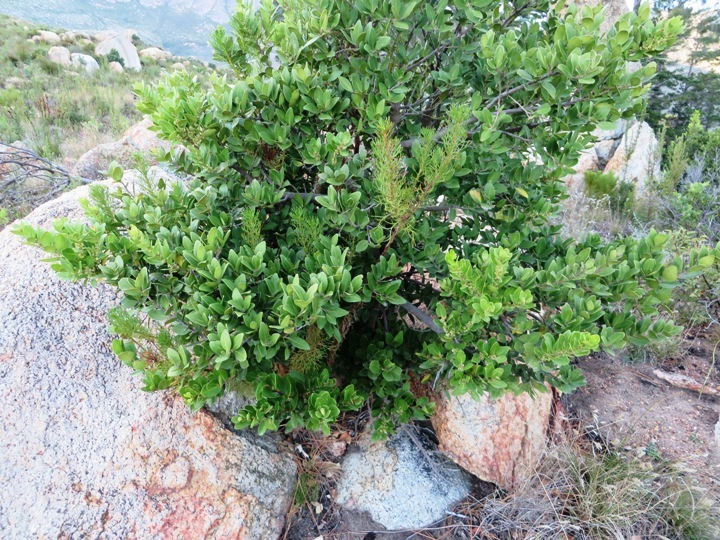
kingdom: Plantae
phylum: Tracheophyta
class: Magnoliopsida
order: Celastrales
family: Celastraceae
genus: Gymnosporia
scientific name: Gymnosporia laurina
